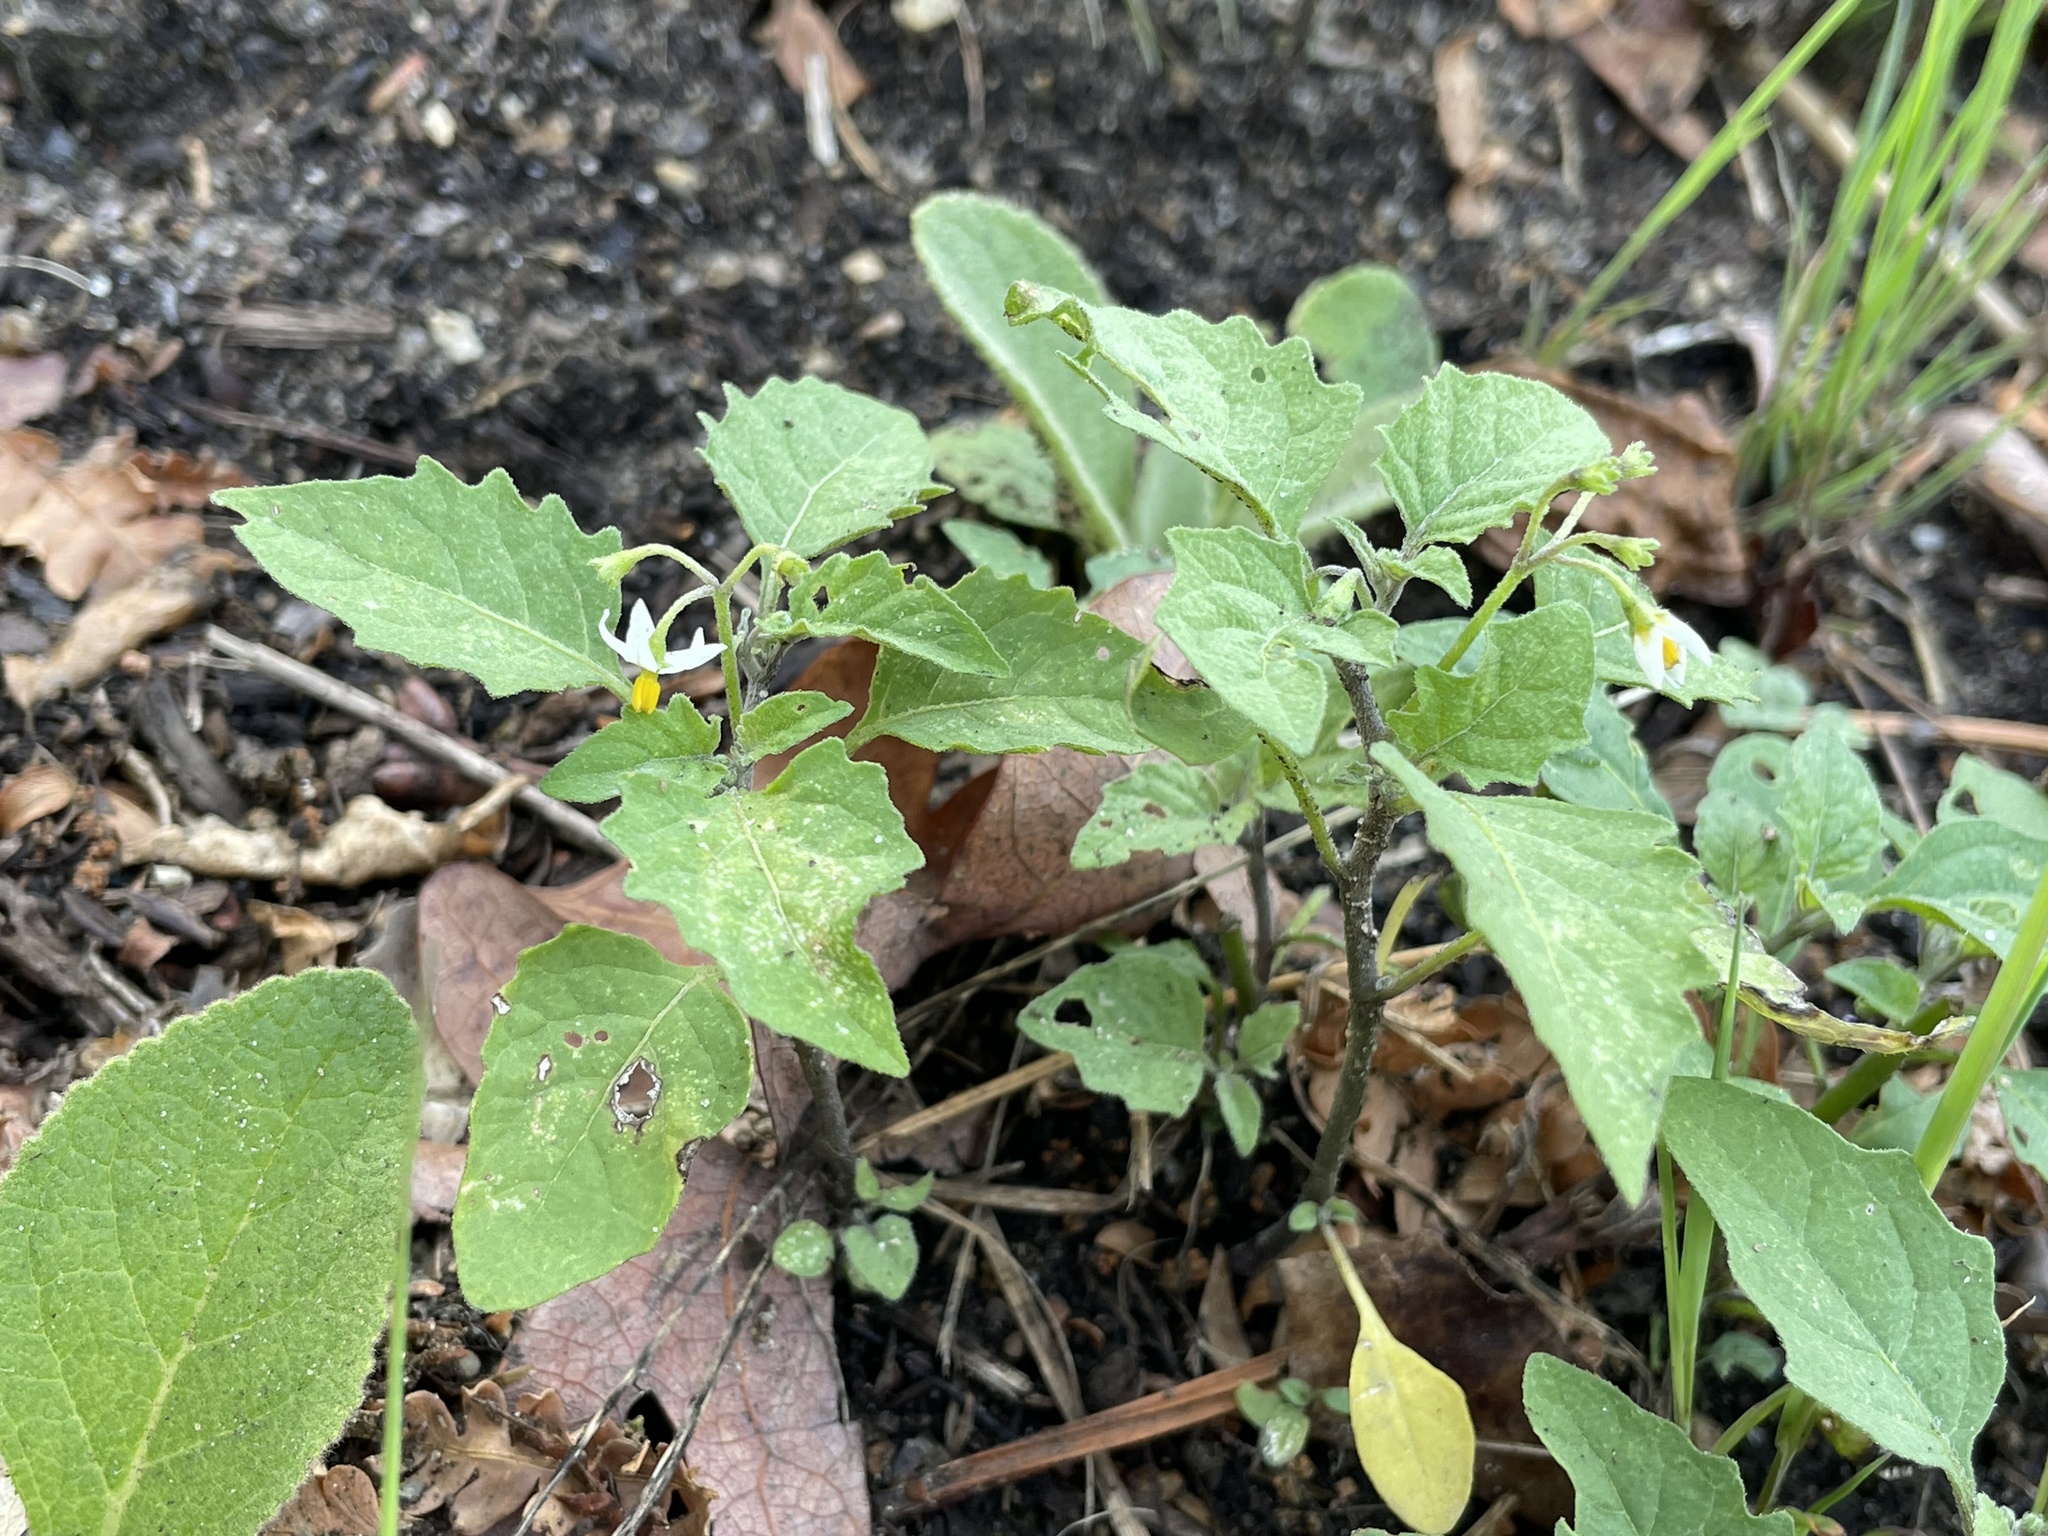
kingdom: Plantae
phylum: Tracheophyta
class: Magnoliopsida
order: Solanales
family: Solanaceae
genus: Solanum
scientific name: Solanum emulans
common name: Eastern black nightshade
